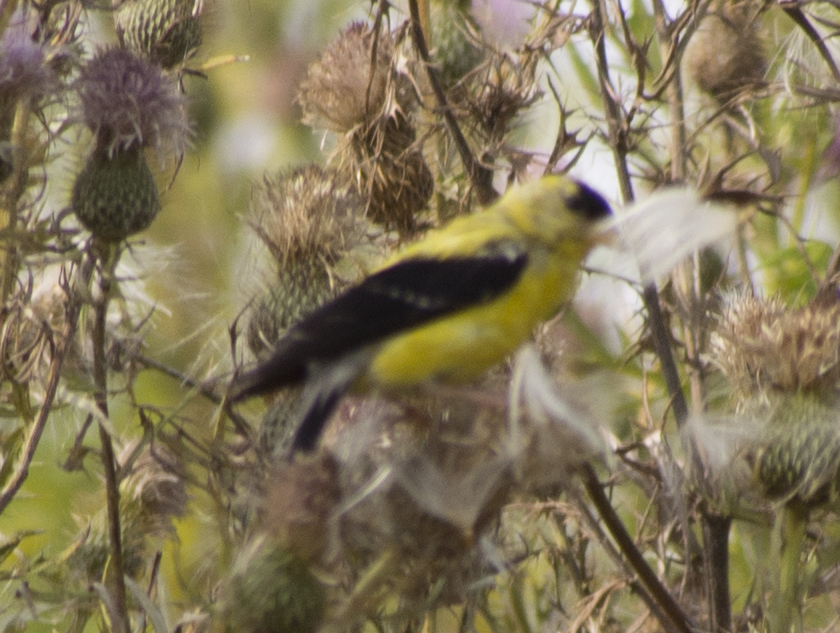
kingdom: Animalia
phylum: Chordata
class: Aves
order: Passeriformes
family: Fringillidae
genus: Spinus
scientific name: Spinus tristis
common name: American goldfinch
